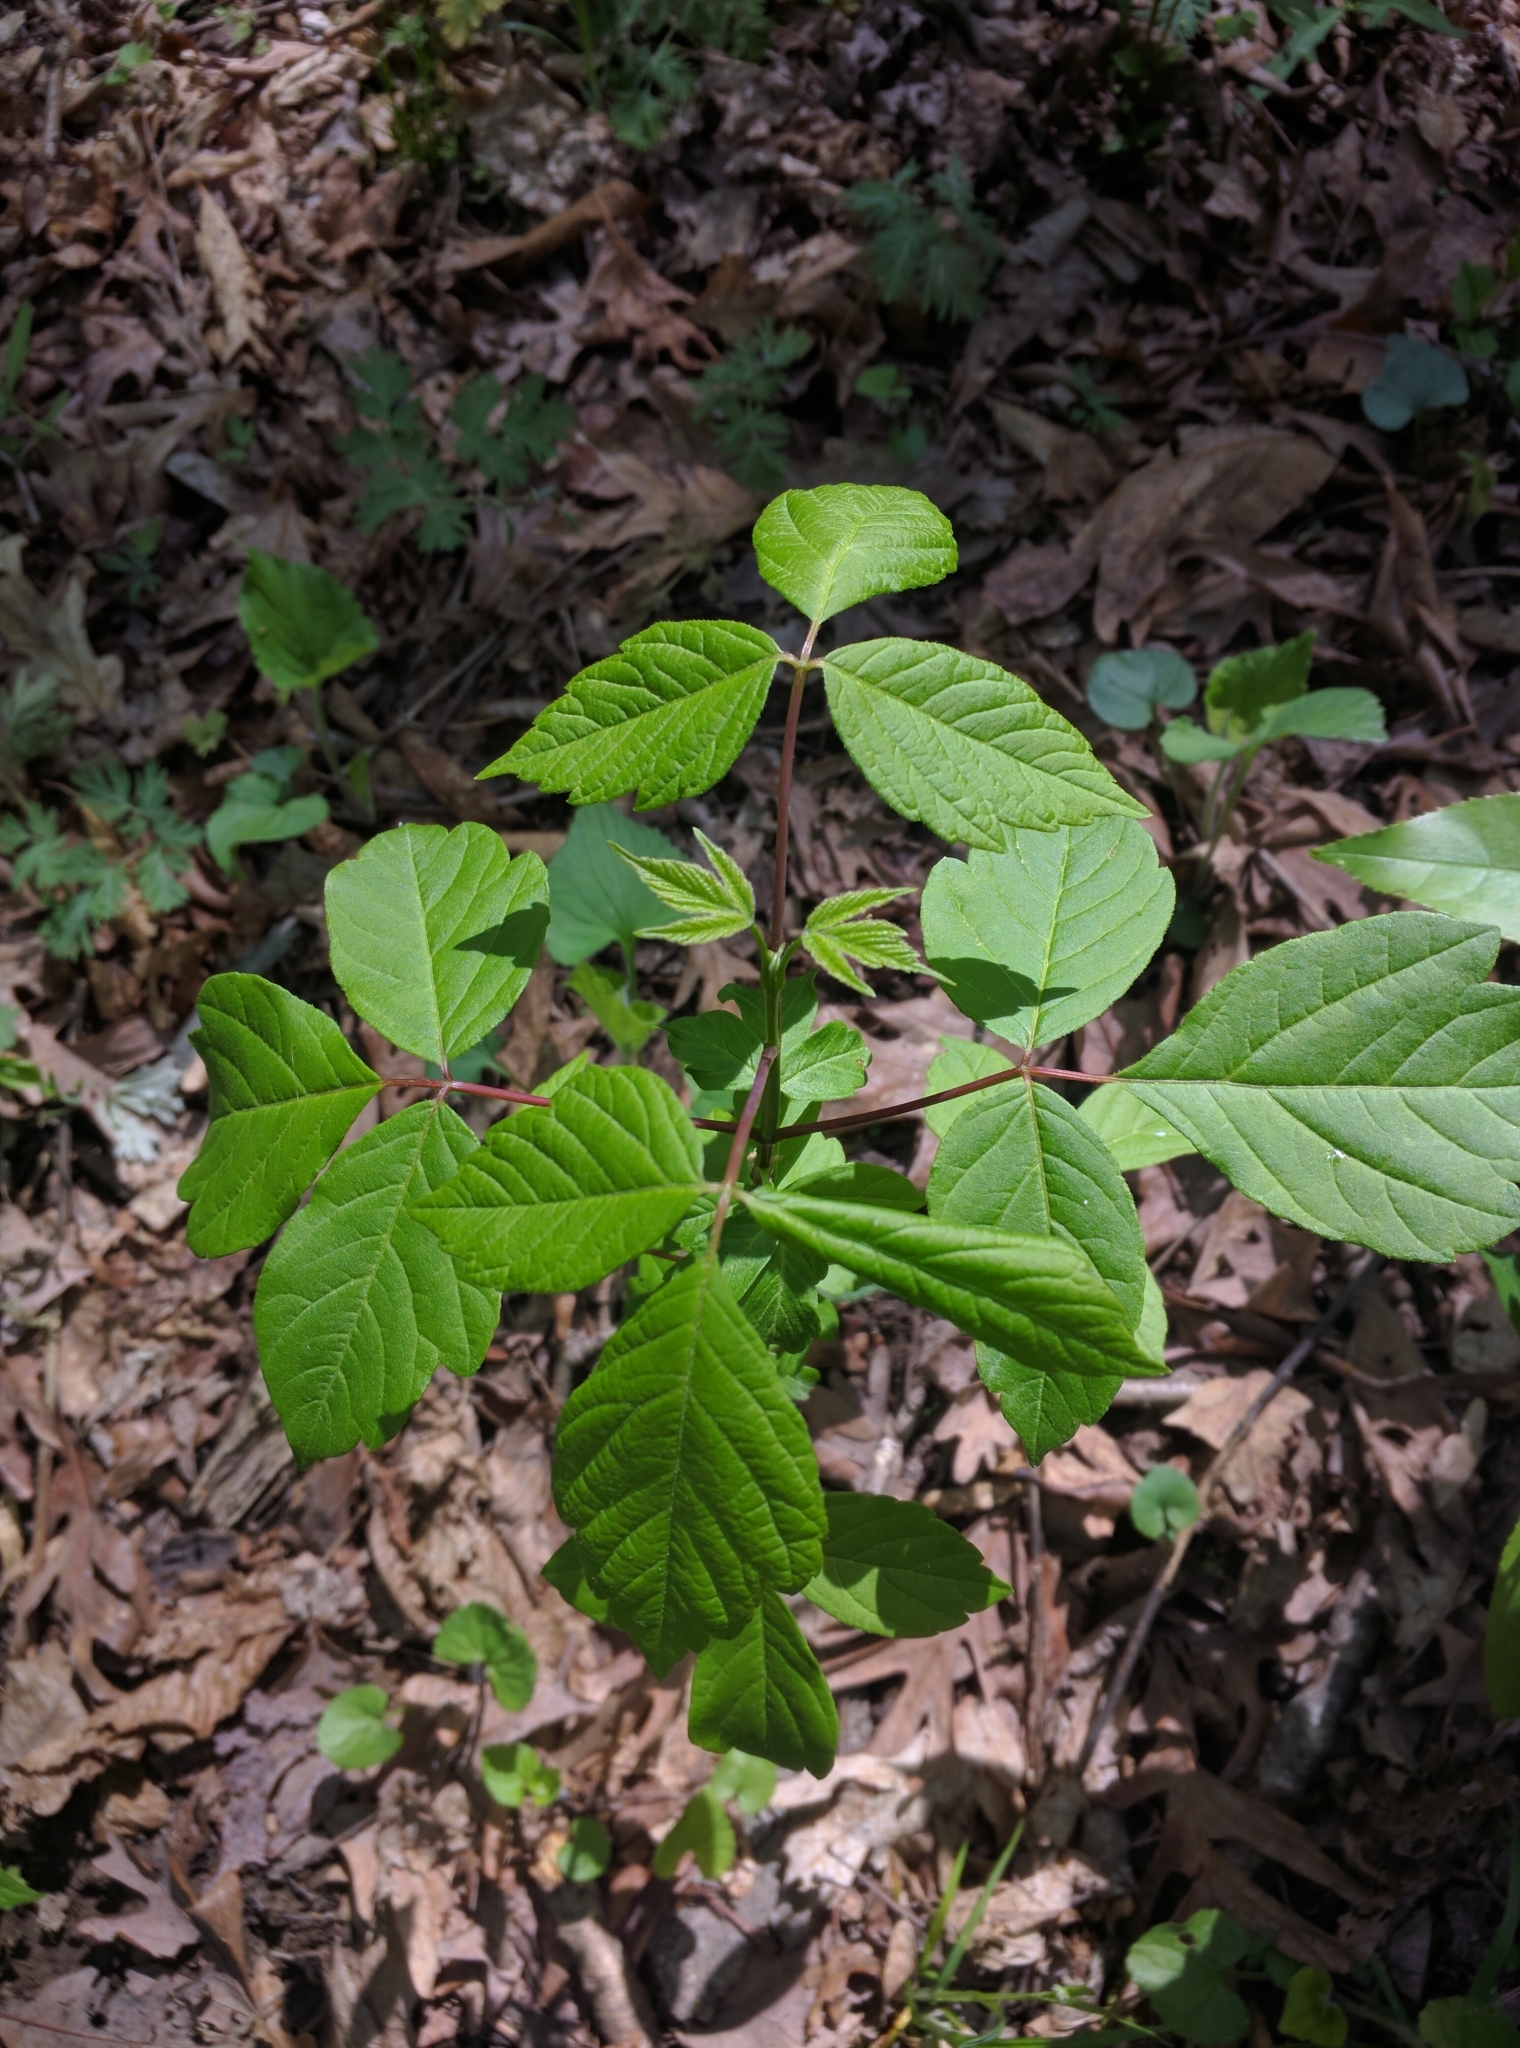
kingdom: Plantae
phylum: Tracheophyta
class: Magnoliopsida
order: Sapindales
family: Sapindaceae
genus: Acer
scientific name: Acer negundo
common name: Ashleaf maple
